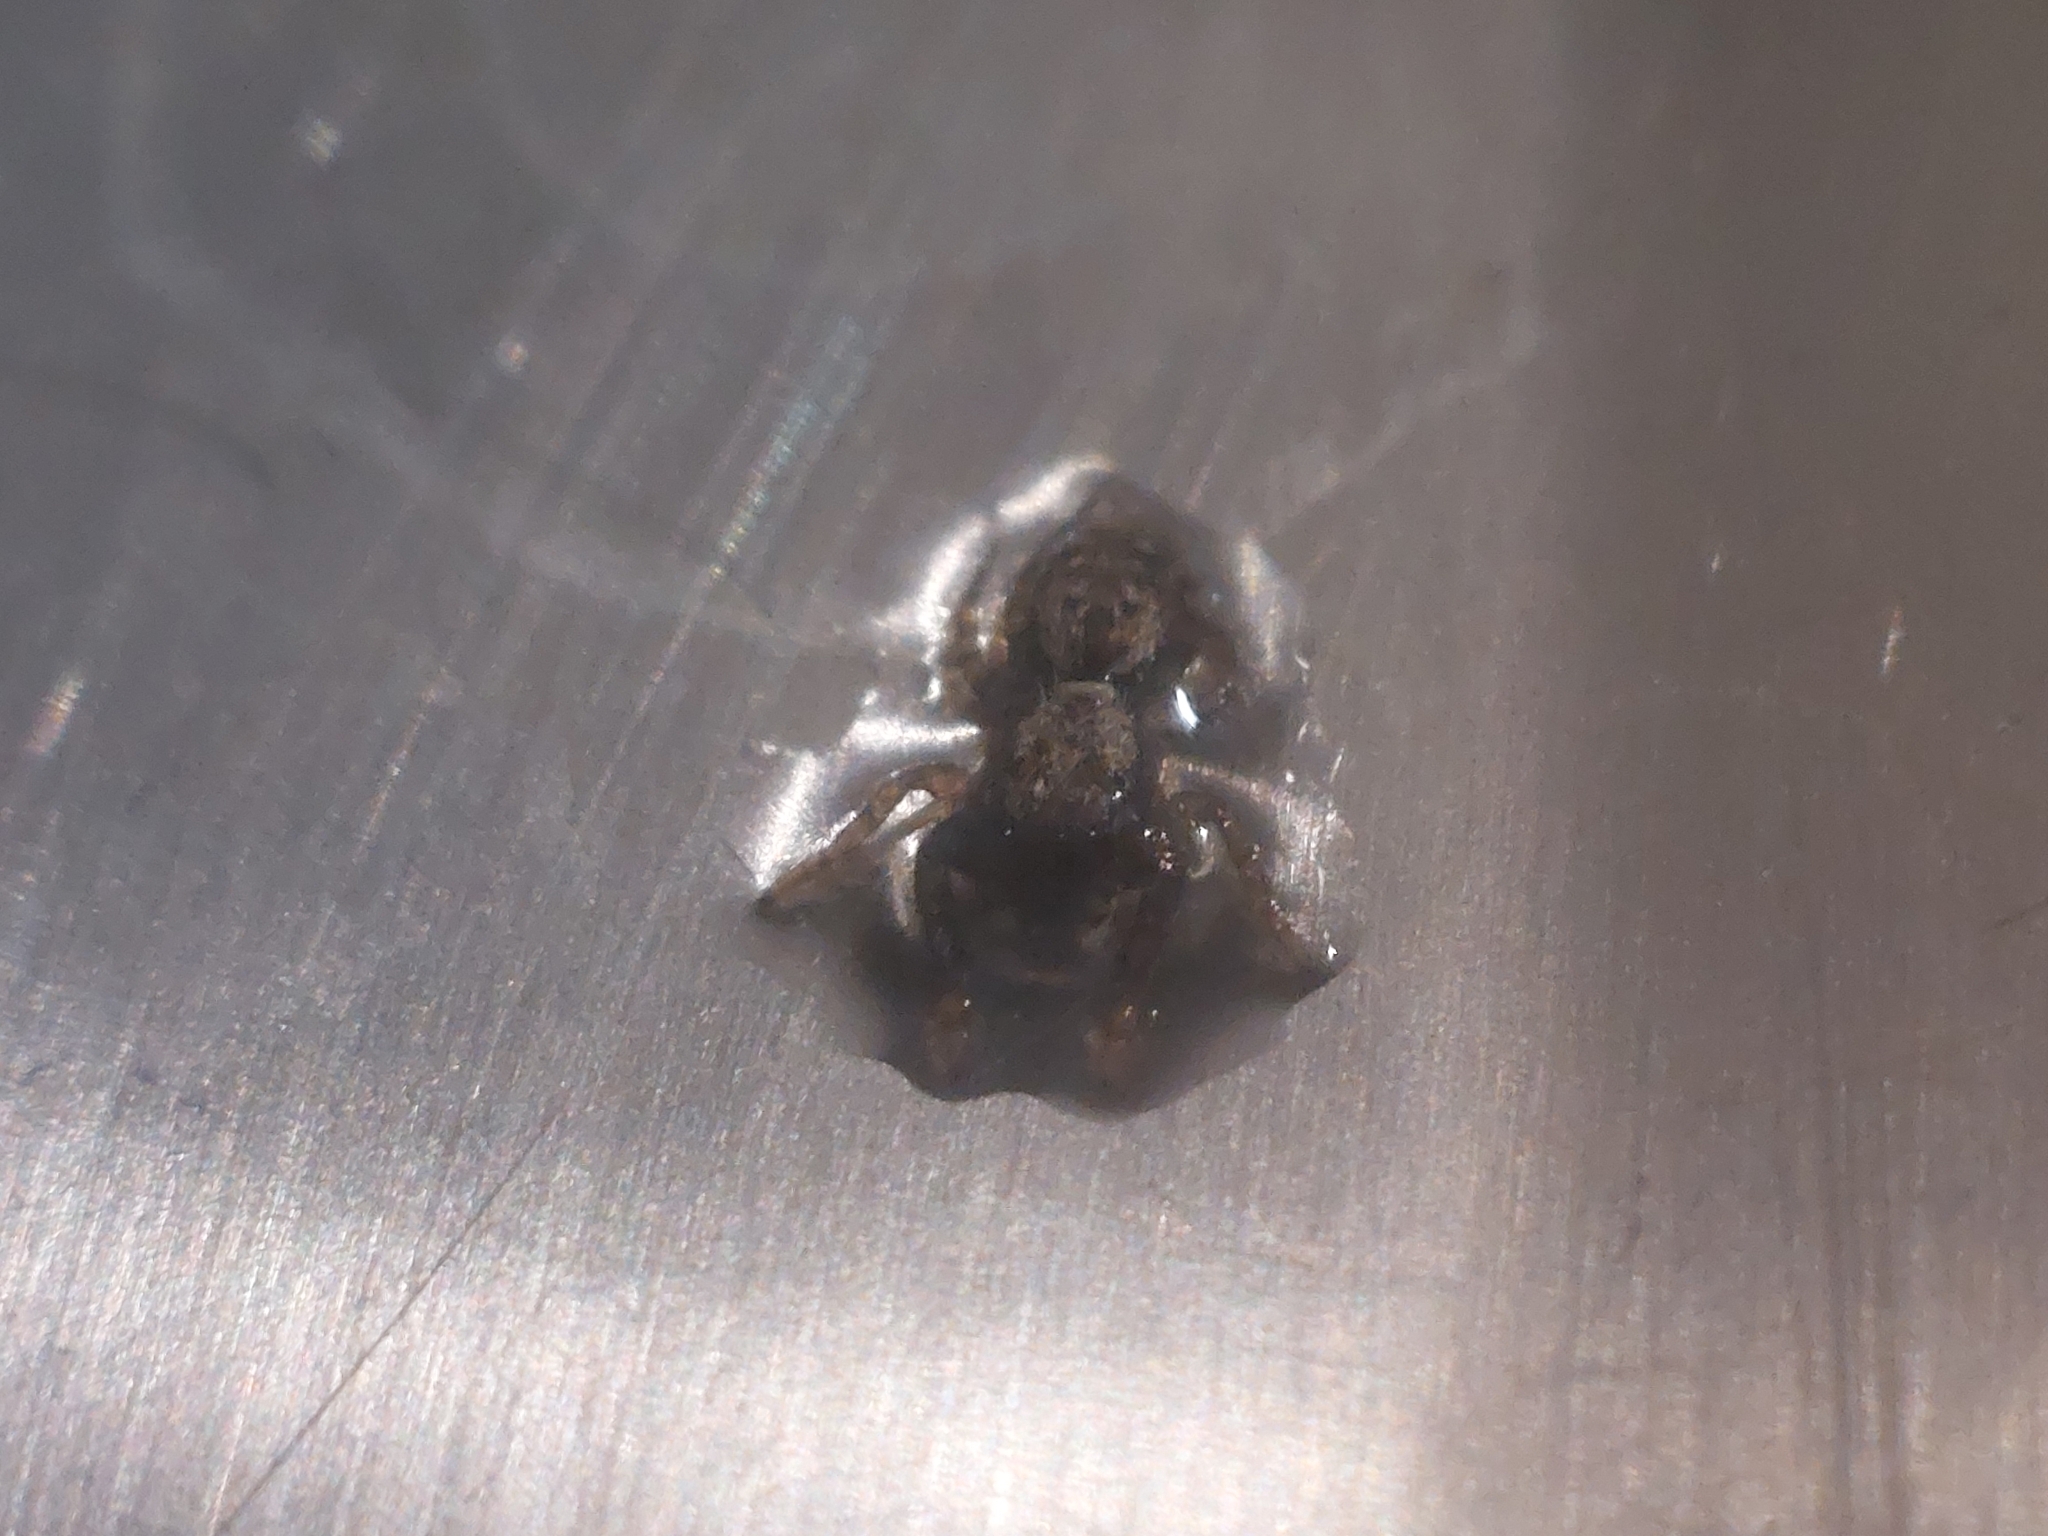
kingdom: Animalia
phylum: Arthropoda
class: Arachnida
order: Araneae
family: Salticidae
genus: Marpissa
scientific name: Marpissa muscosa
